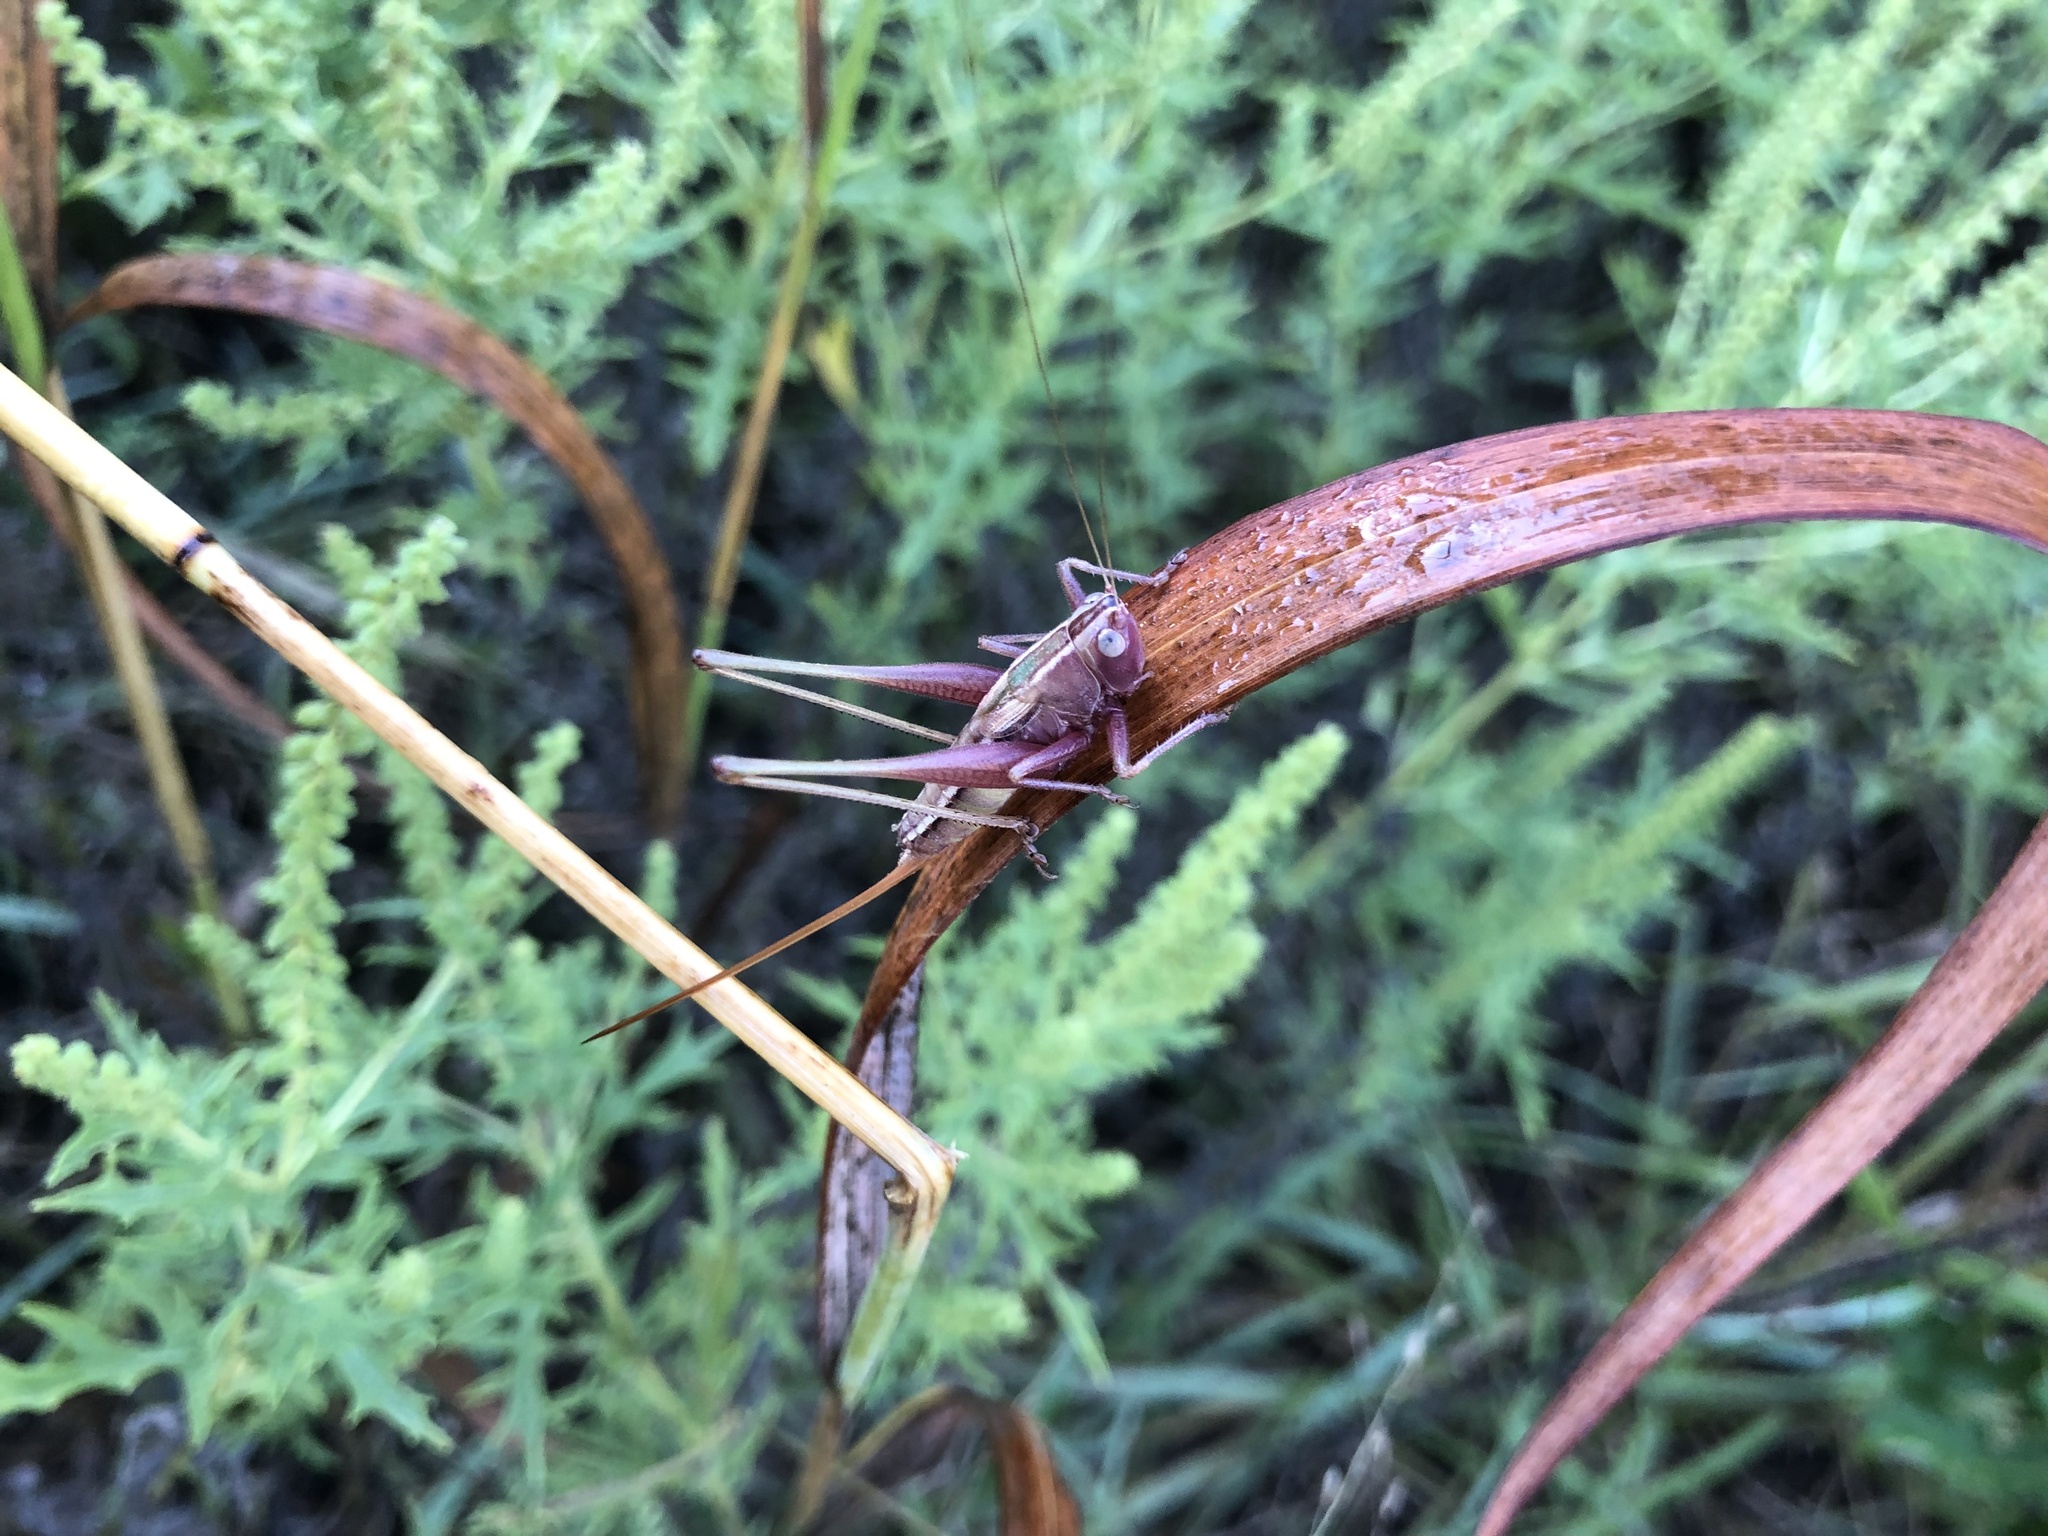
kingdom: Animalia
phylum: Arthropoda
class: Insecta
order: Orthoptera
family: Tettigoniidae
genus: Conocephalus
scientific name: Conocephalus strictus
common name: Straight-lanced katydid
